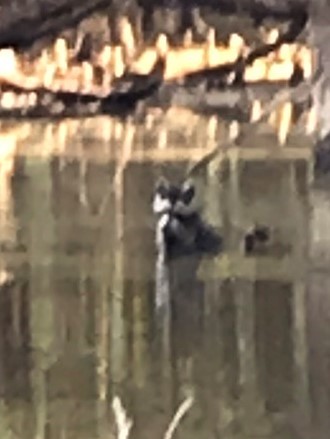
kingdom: Animalia
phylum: Chordata
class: Mammalia
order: Carnivora
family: Procyonidae
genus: Procyon
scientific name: Procyon lotor
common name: Raccoon
